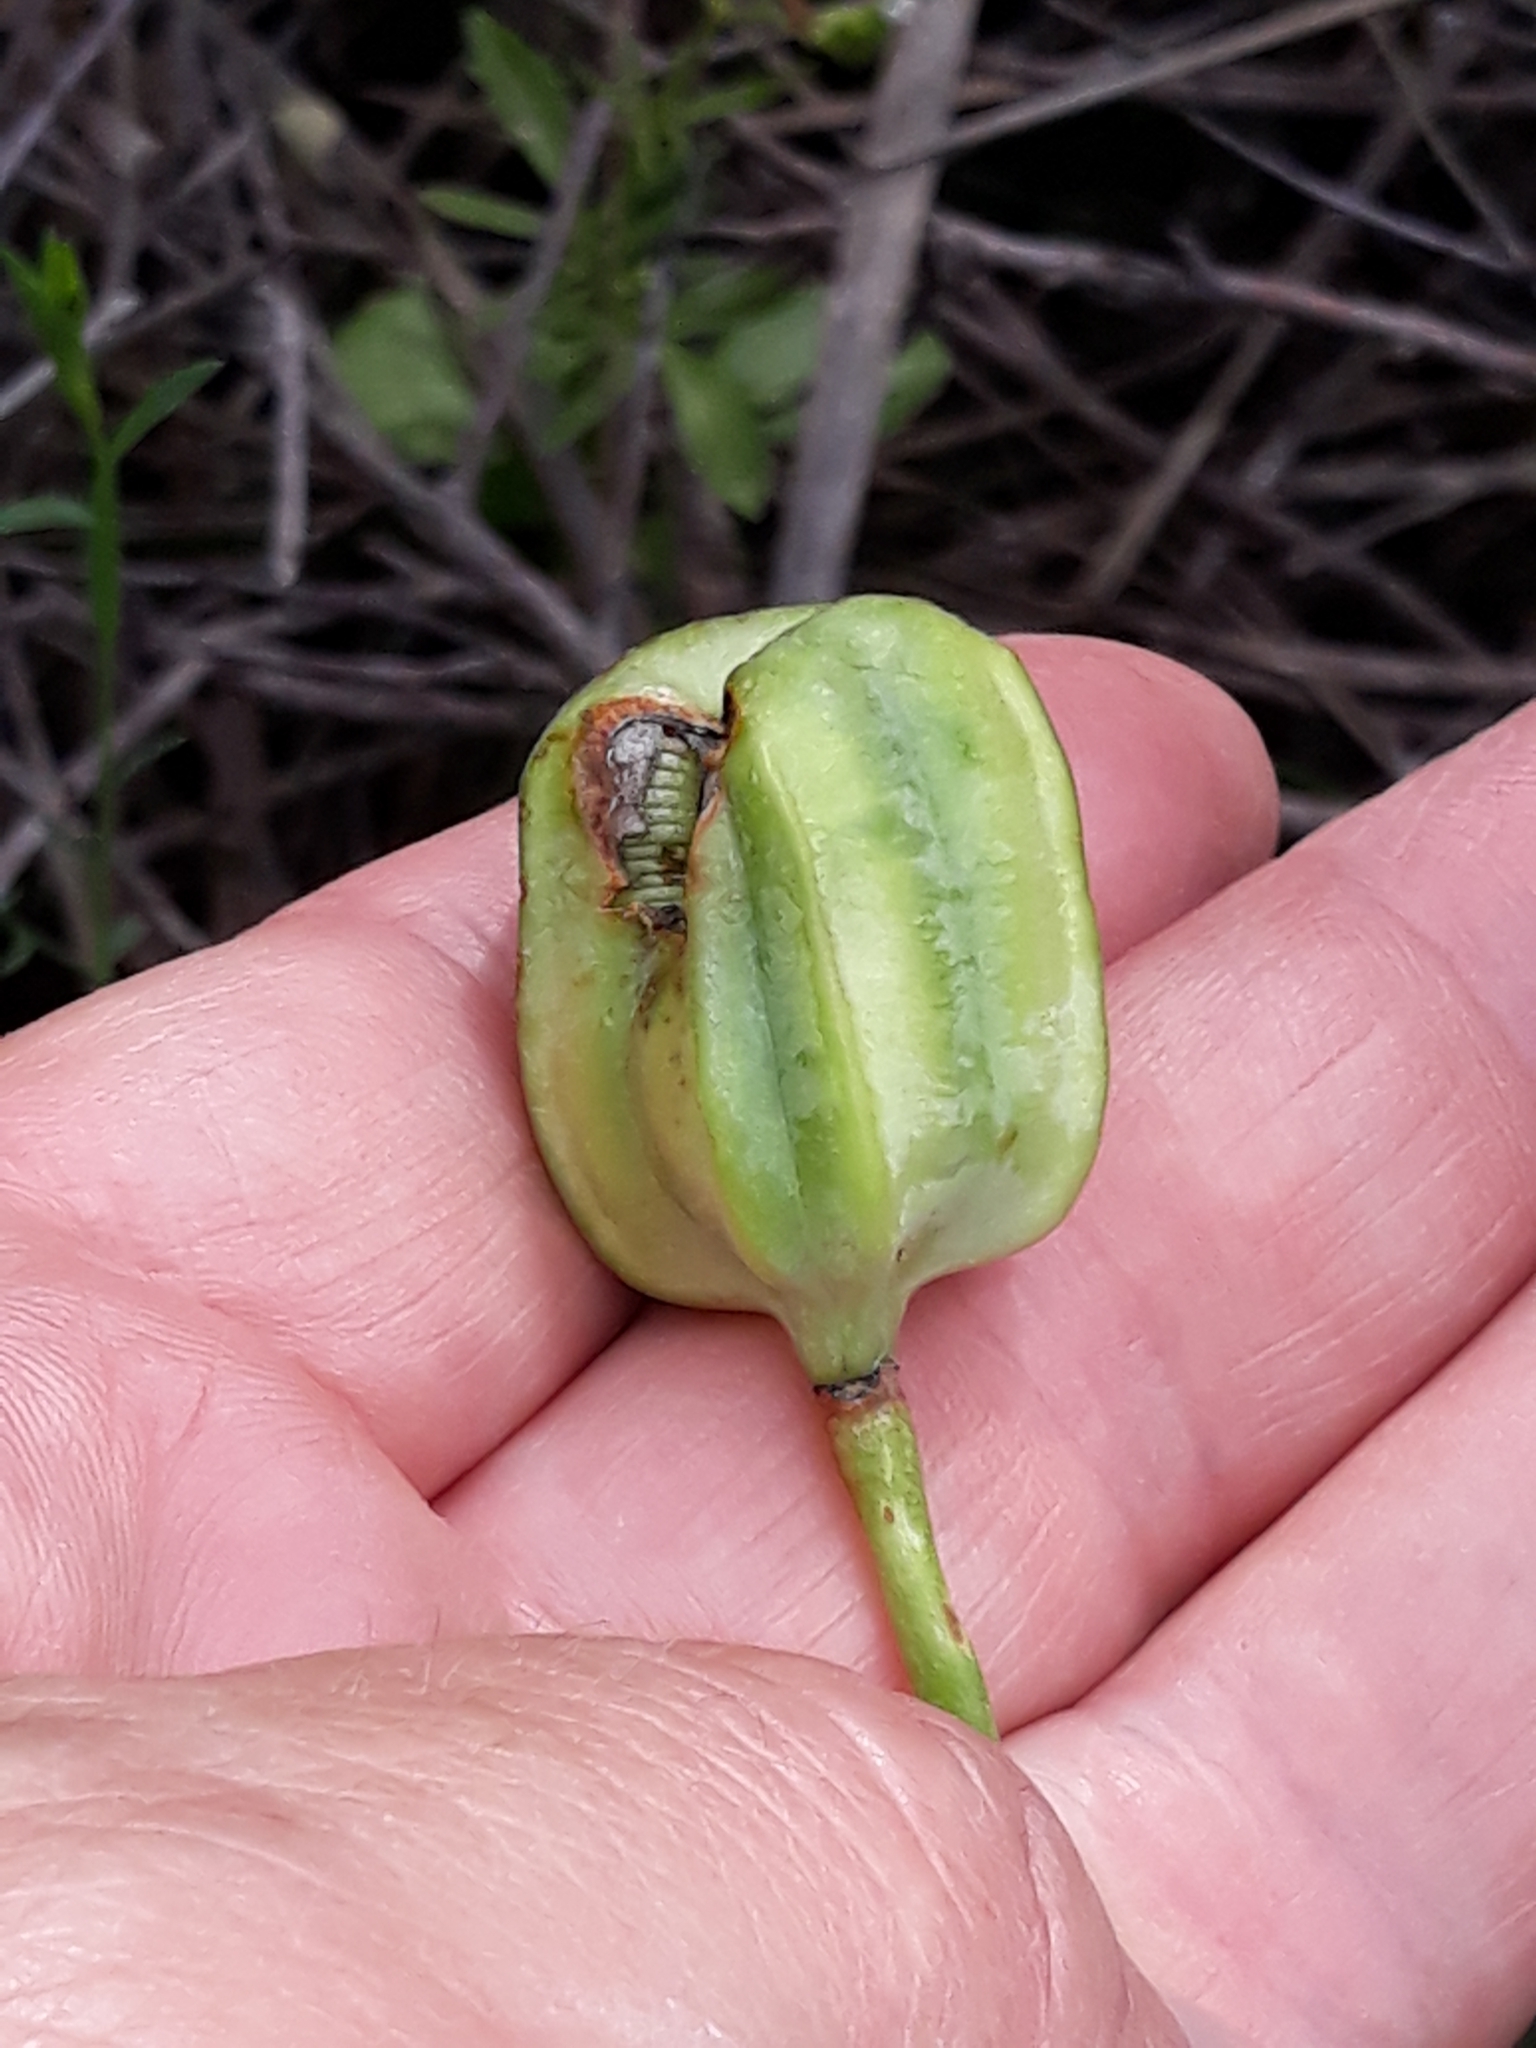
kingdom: Plantae
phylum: Tracheophyta
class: Liliopsida
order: Liliales
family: Liliaceae
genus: Fritillaria
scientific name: Fritillaria oranensis
